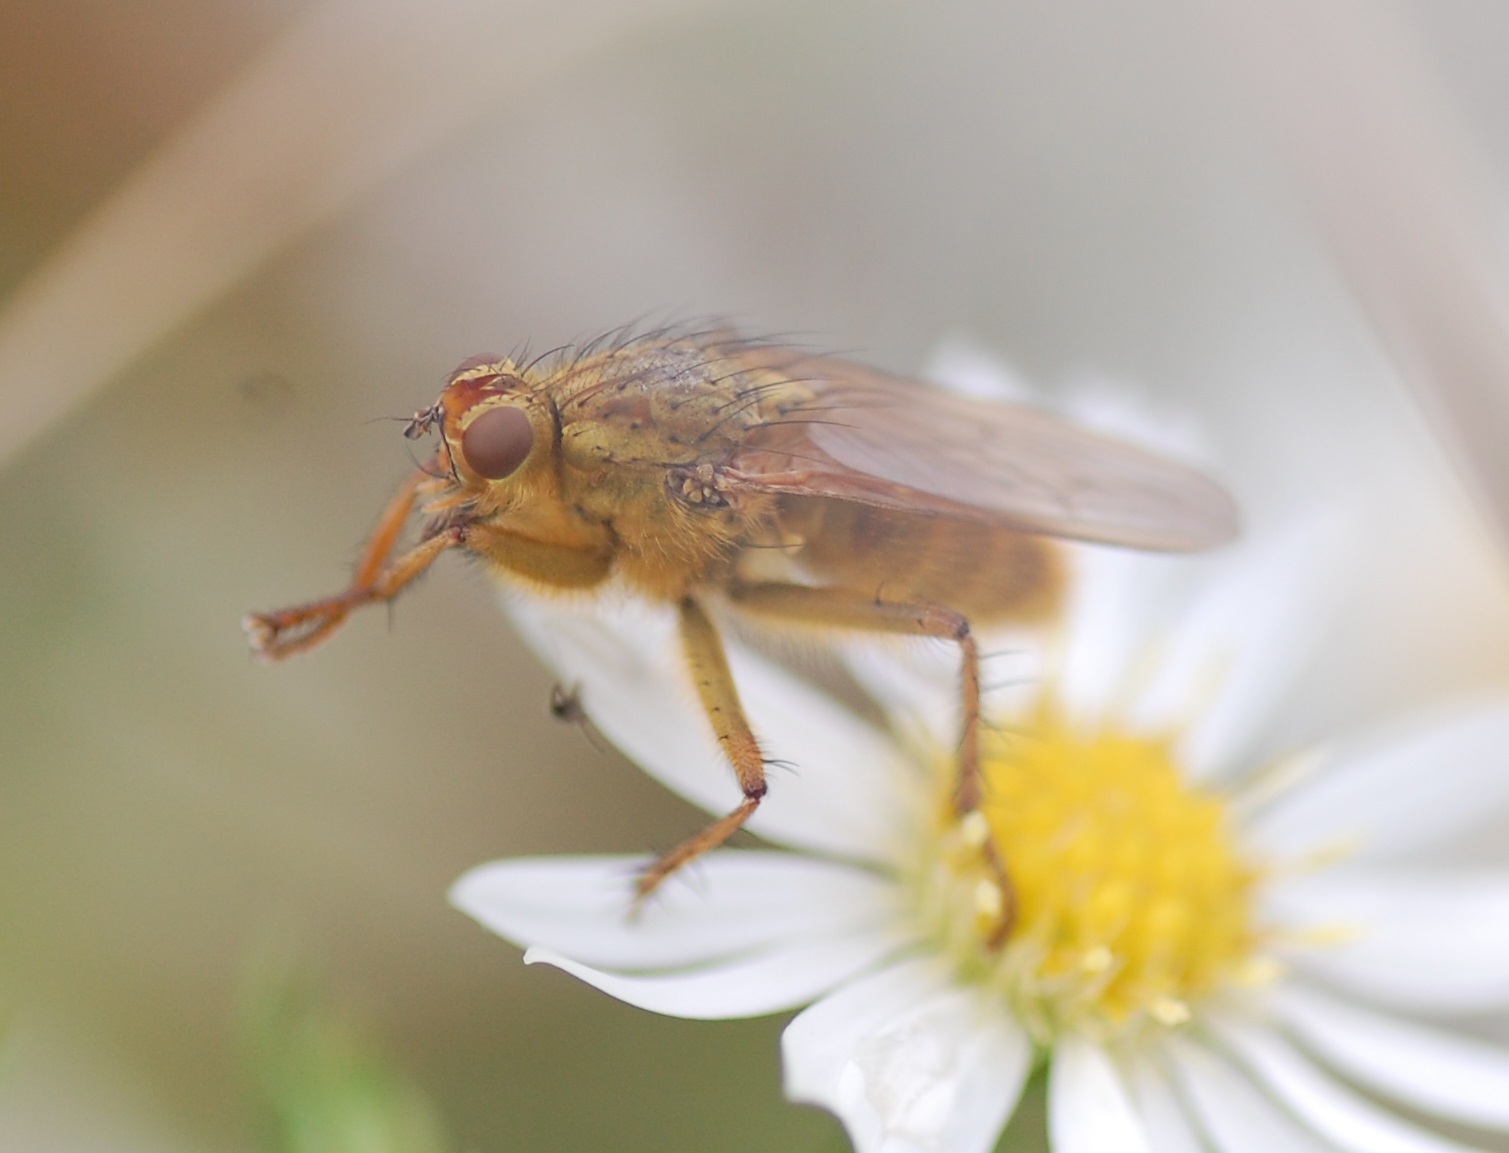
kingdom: Animalia
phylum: Arthropoda
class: Insecta
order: Diptera
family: Scathophagidae
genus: Scathophaga
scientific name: Scathophaga stercoraria
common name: Yellow dung fly
